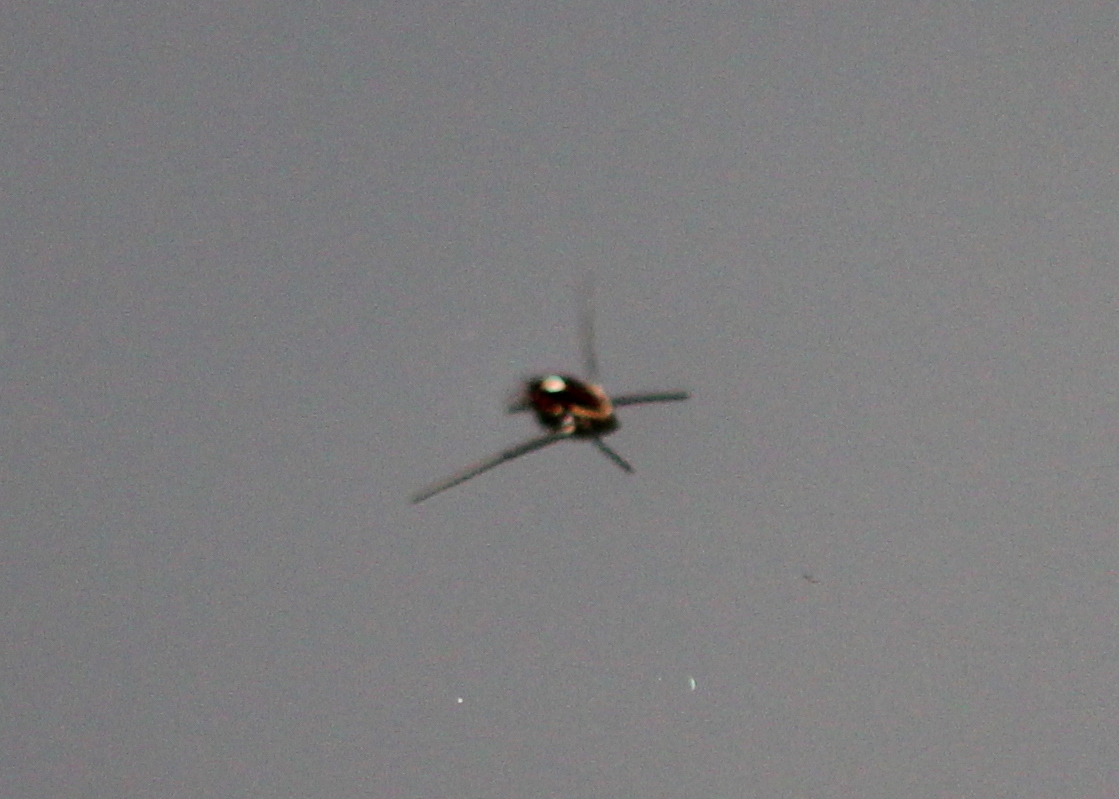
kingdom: Animalia
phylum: Arthropoda
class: Insecta
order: Hemiptera
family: Gerridae
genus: Rheumatobates
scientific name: Rheumatobates
